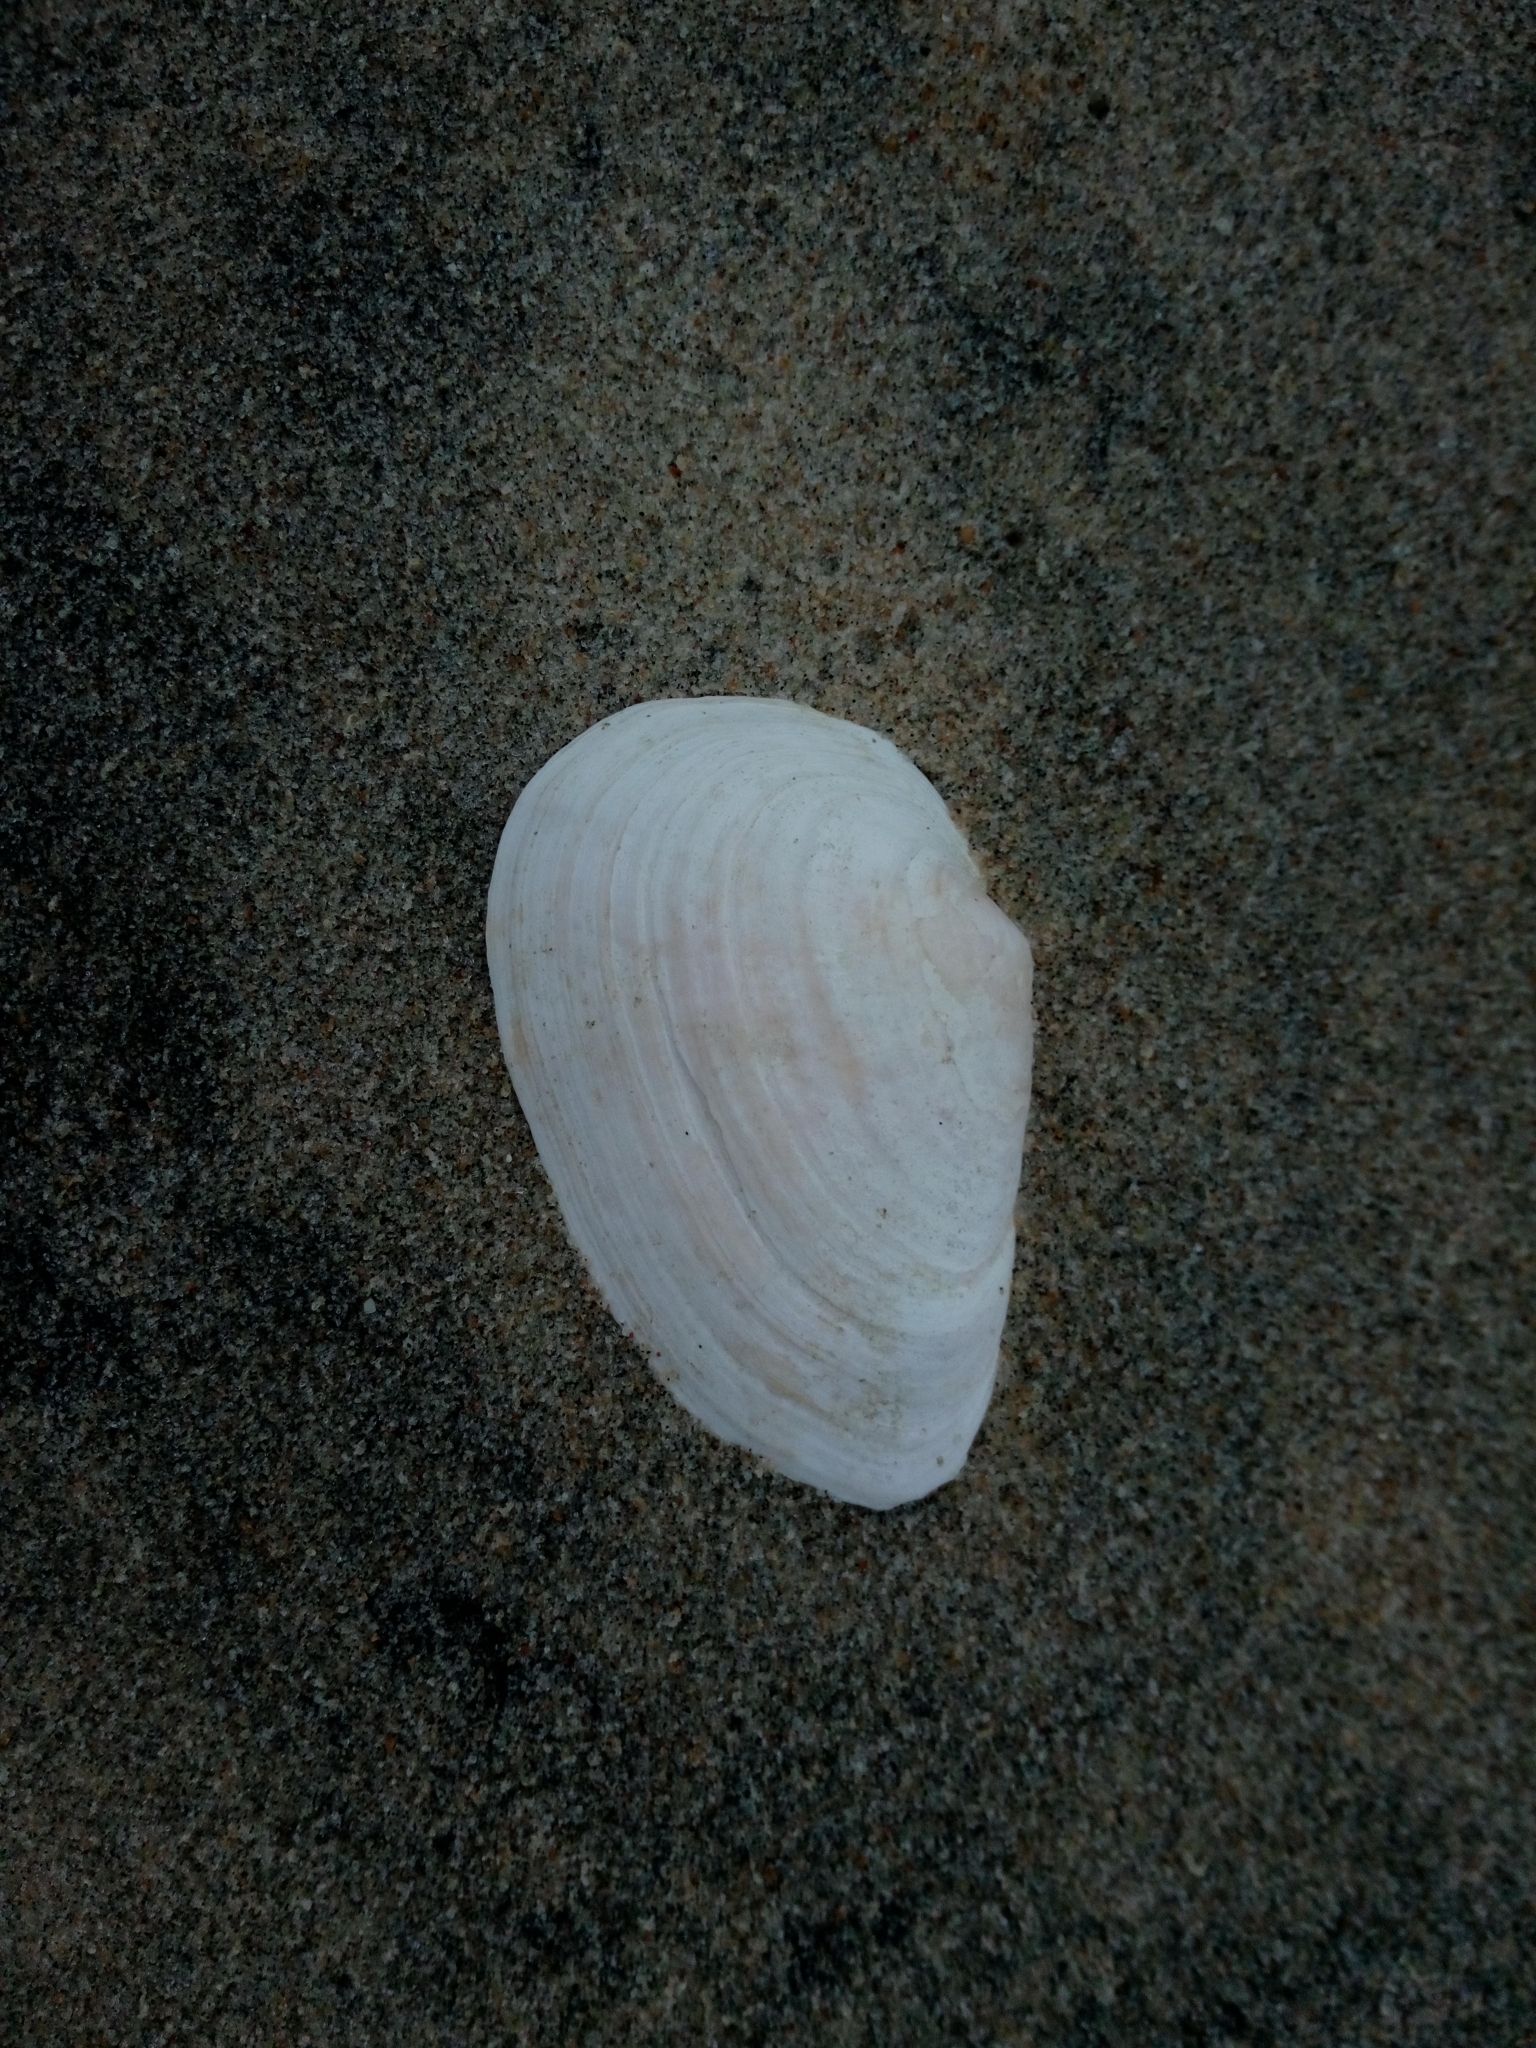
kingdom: Animalia
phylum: Mollusca
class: Bivalvia
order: Myida
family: Myidae
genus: Mya
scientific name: Mya arenaria
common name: Soft-shelled clam
